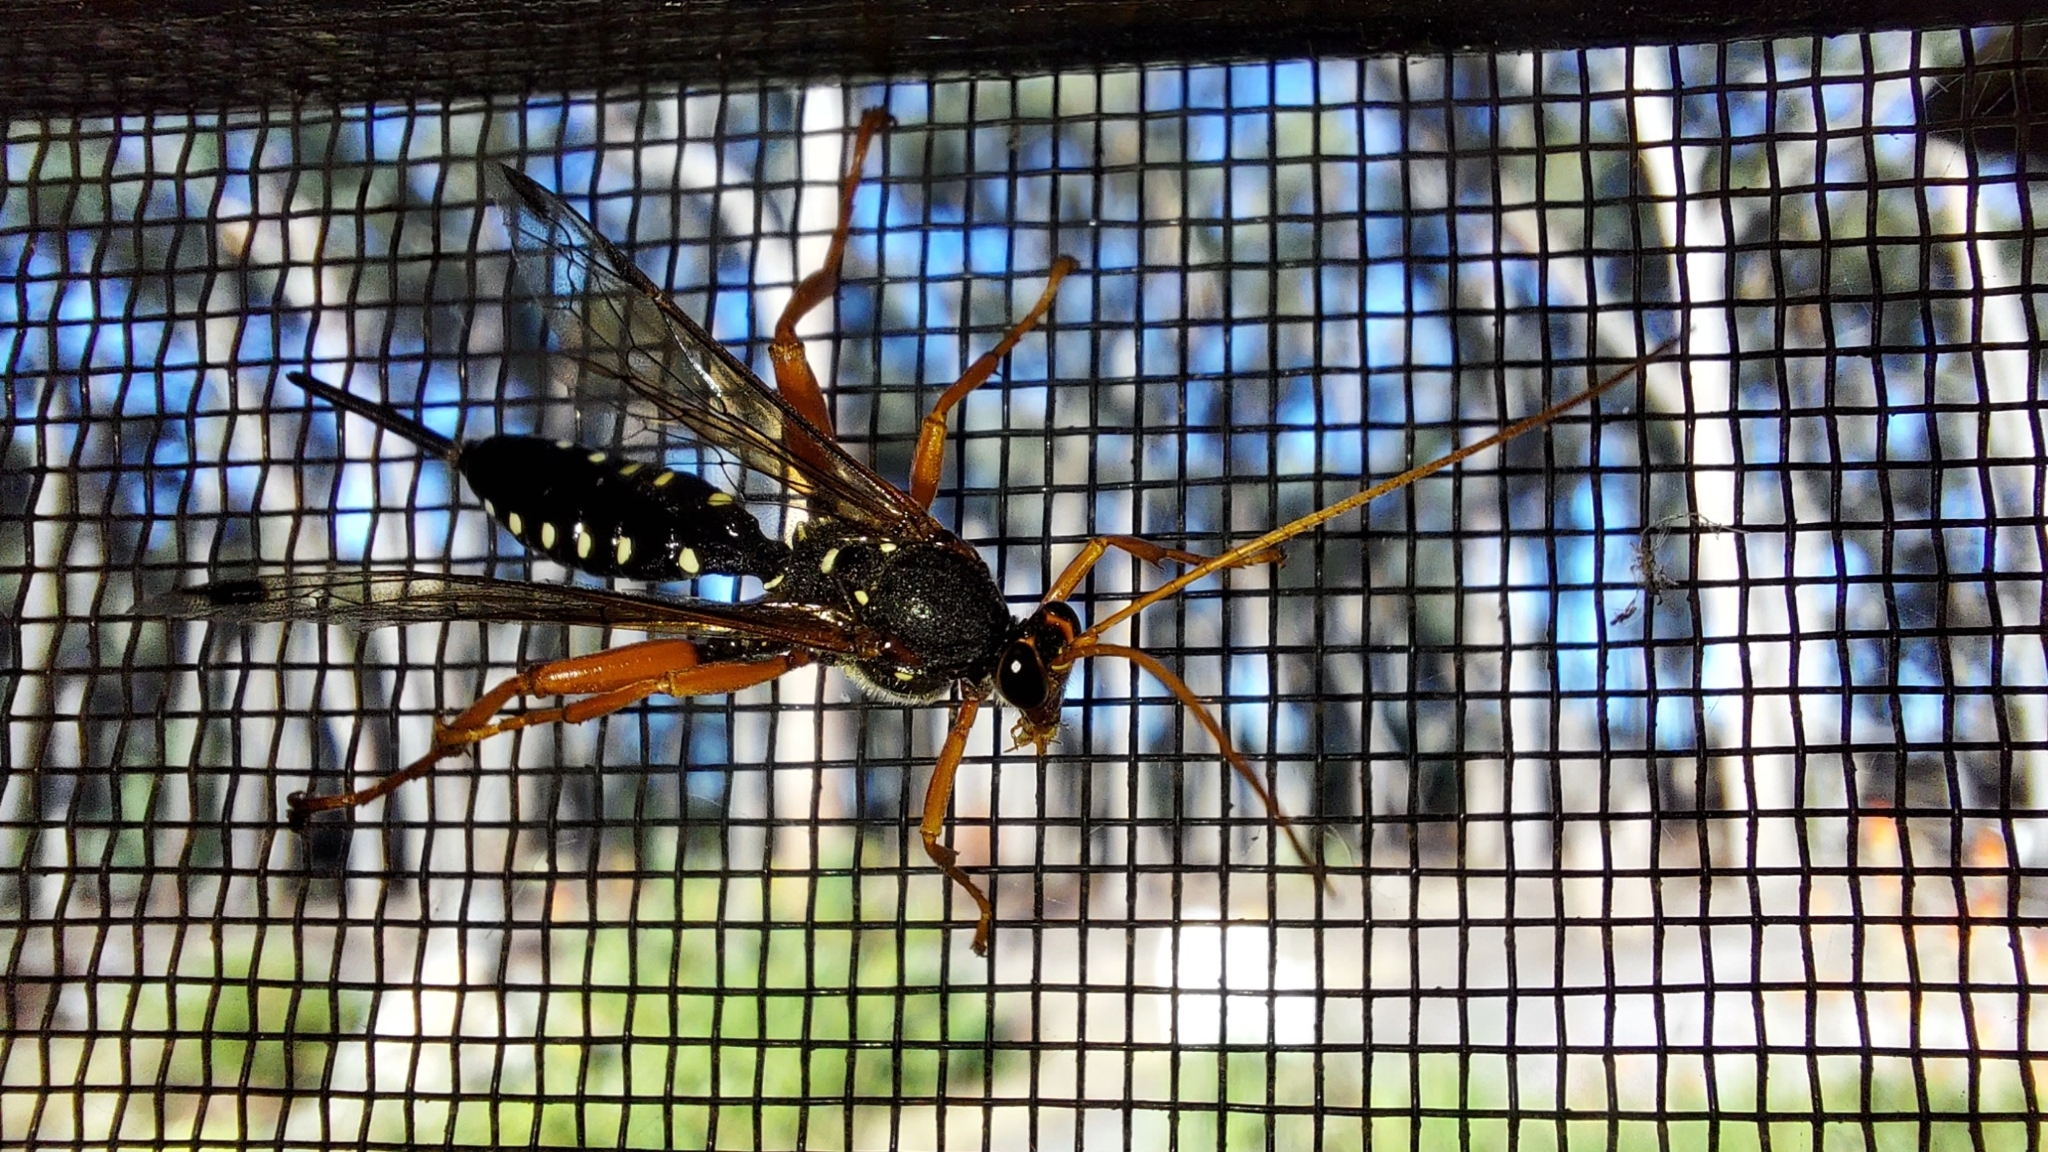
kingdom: Animalia
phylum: Arthropoda
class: Insecta
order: Hymenoptera
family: Ichneumonidae
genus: Echthromorpha
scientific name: Echthromorpha intricatoria
